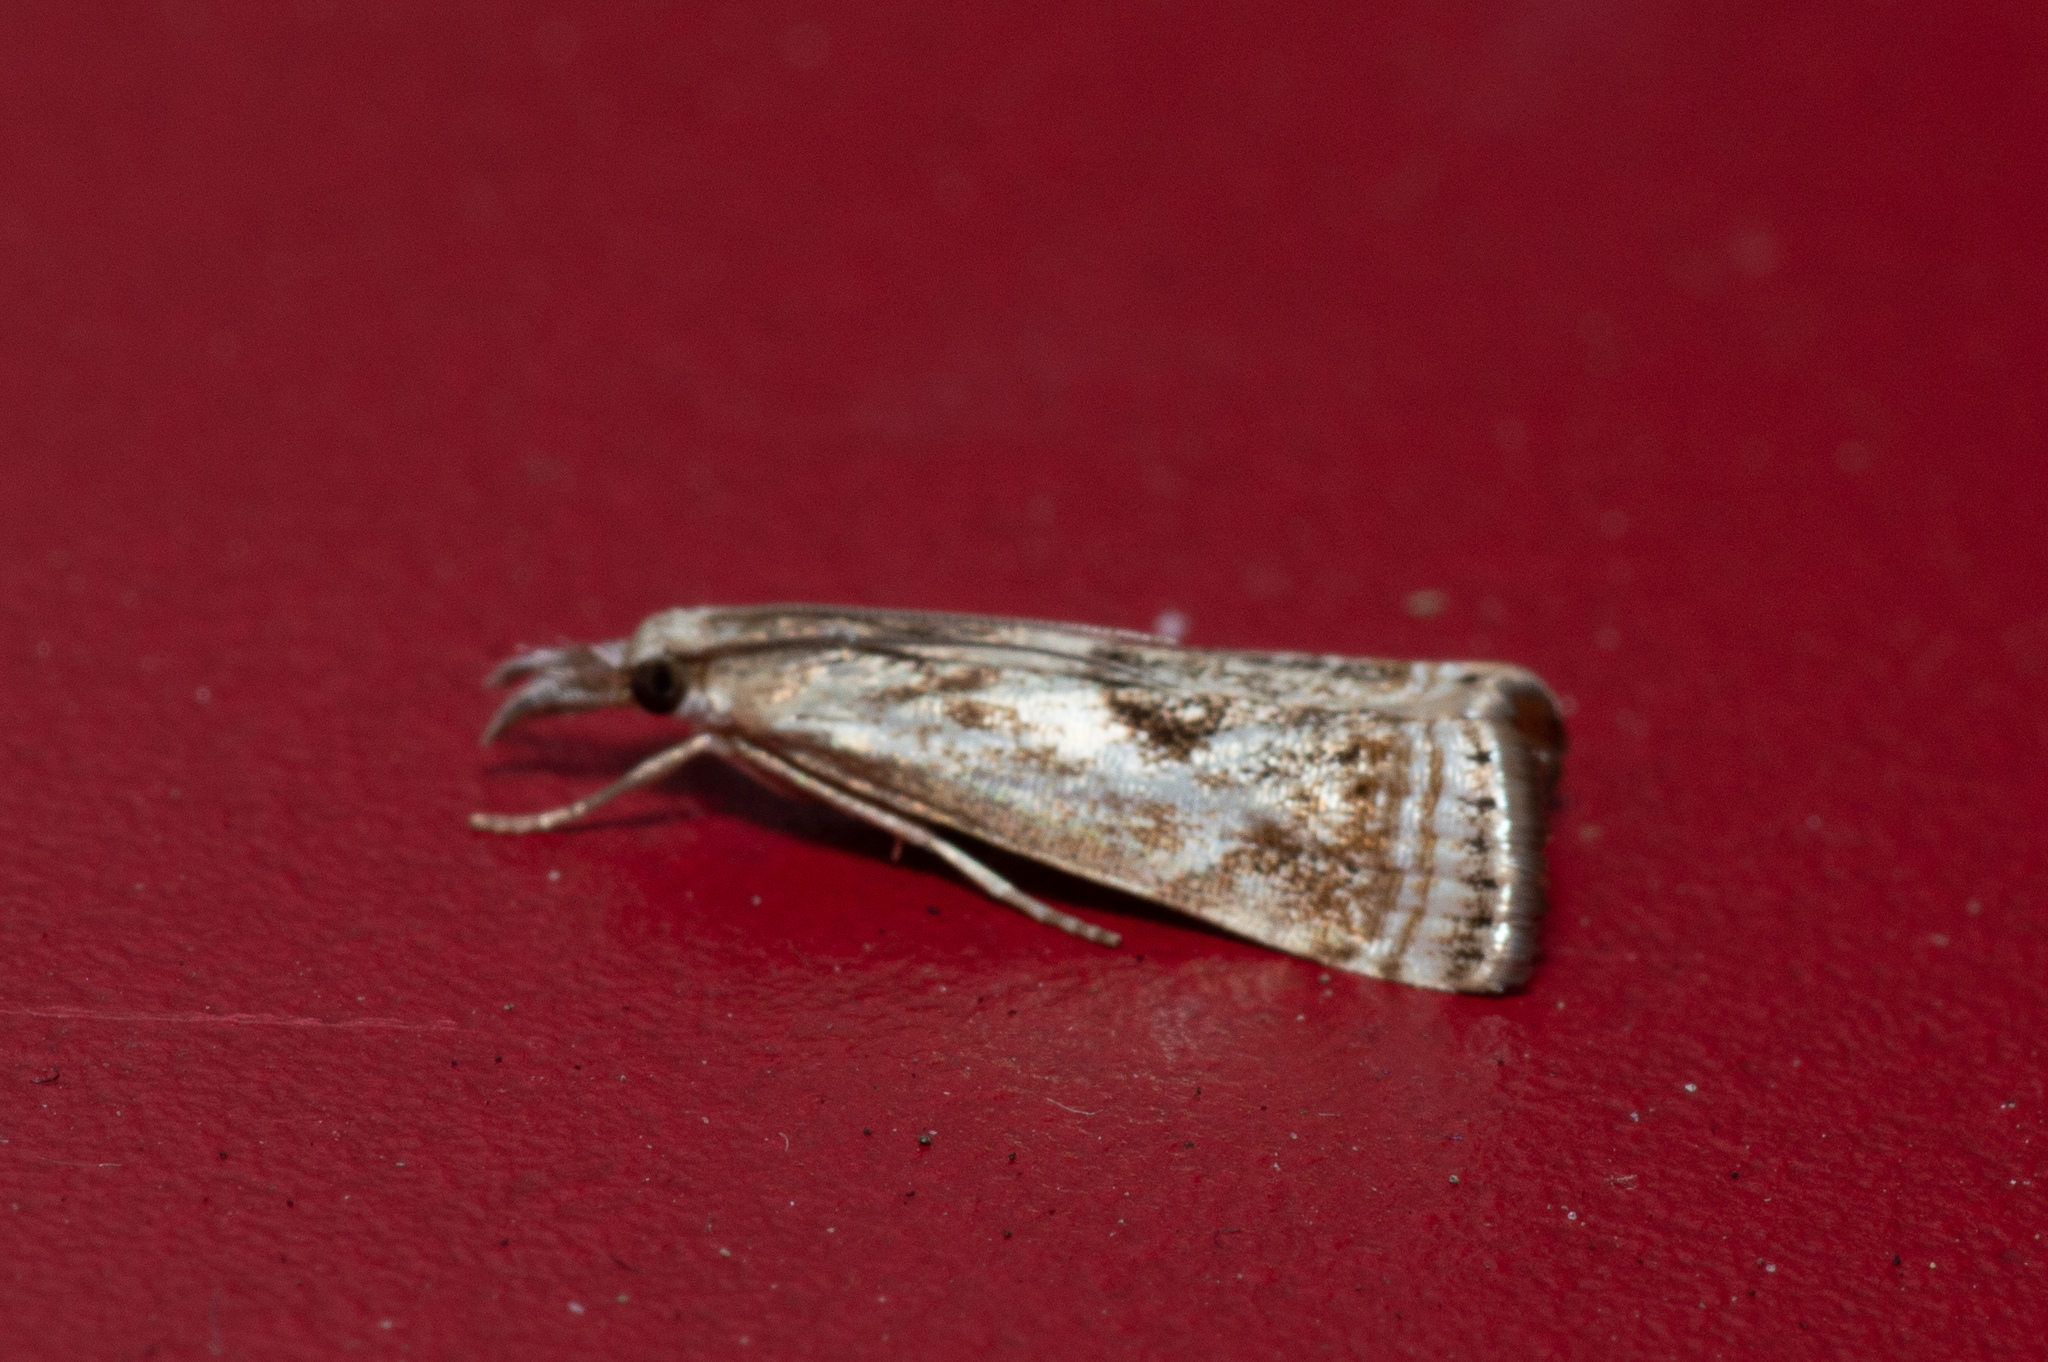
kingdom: Animalia
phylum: Arthropoda
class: Insecta
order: Lepidoptera
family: Crambidae
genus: Microcrambus
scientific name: Microcrambus elegans
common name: Elegant grass-veneer
